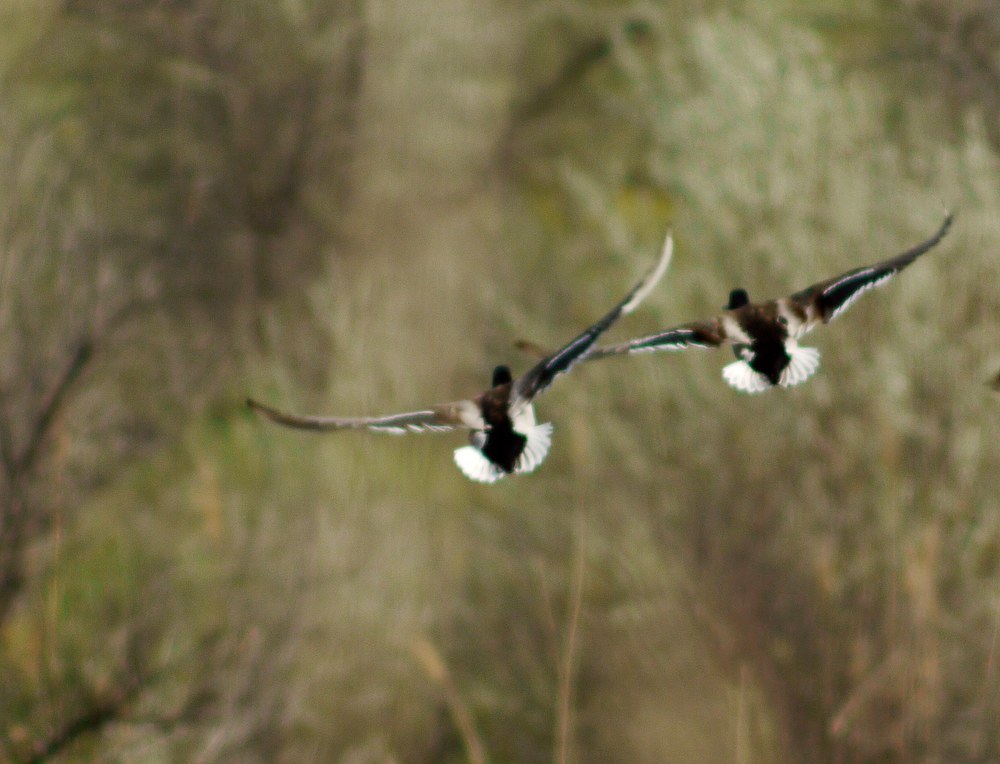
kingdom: Animalia
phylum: Chordata
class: Aves
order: Anseriformes
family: Anatidae
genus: Anas
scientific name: Anas platyrhynchos
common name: Mallard
